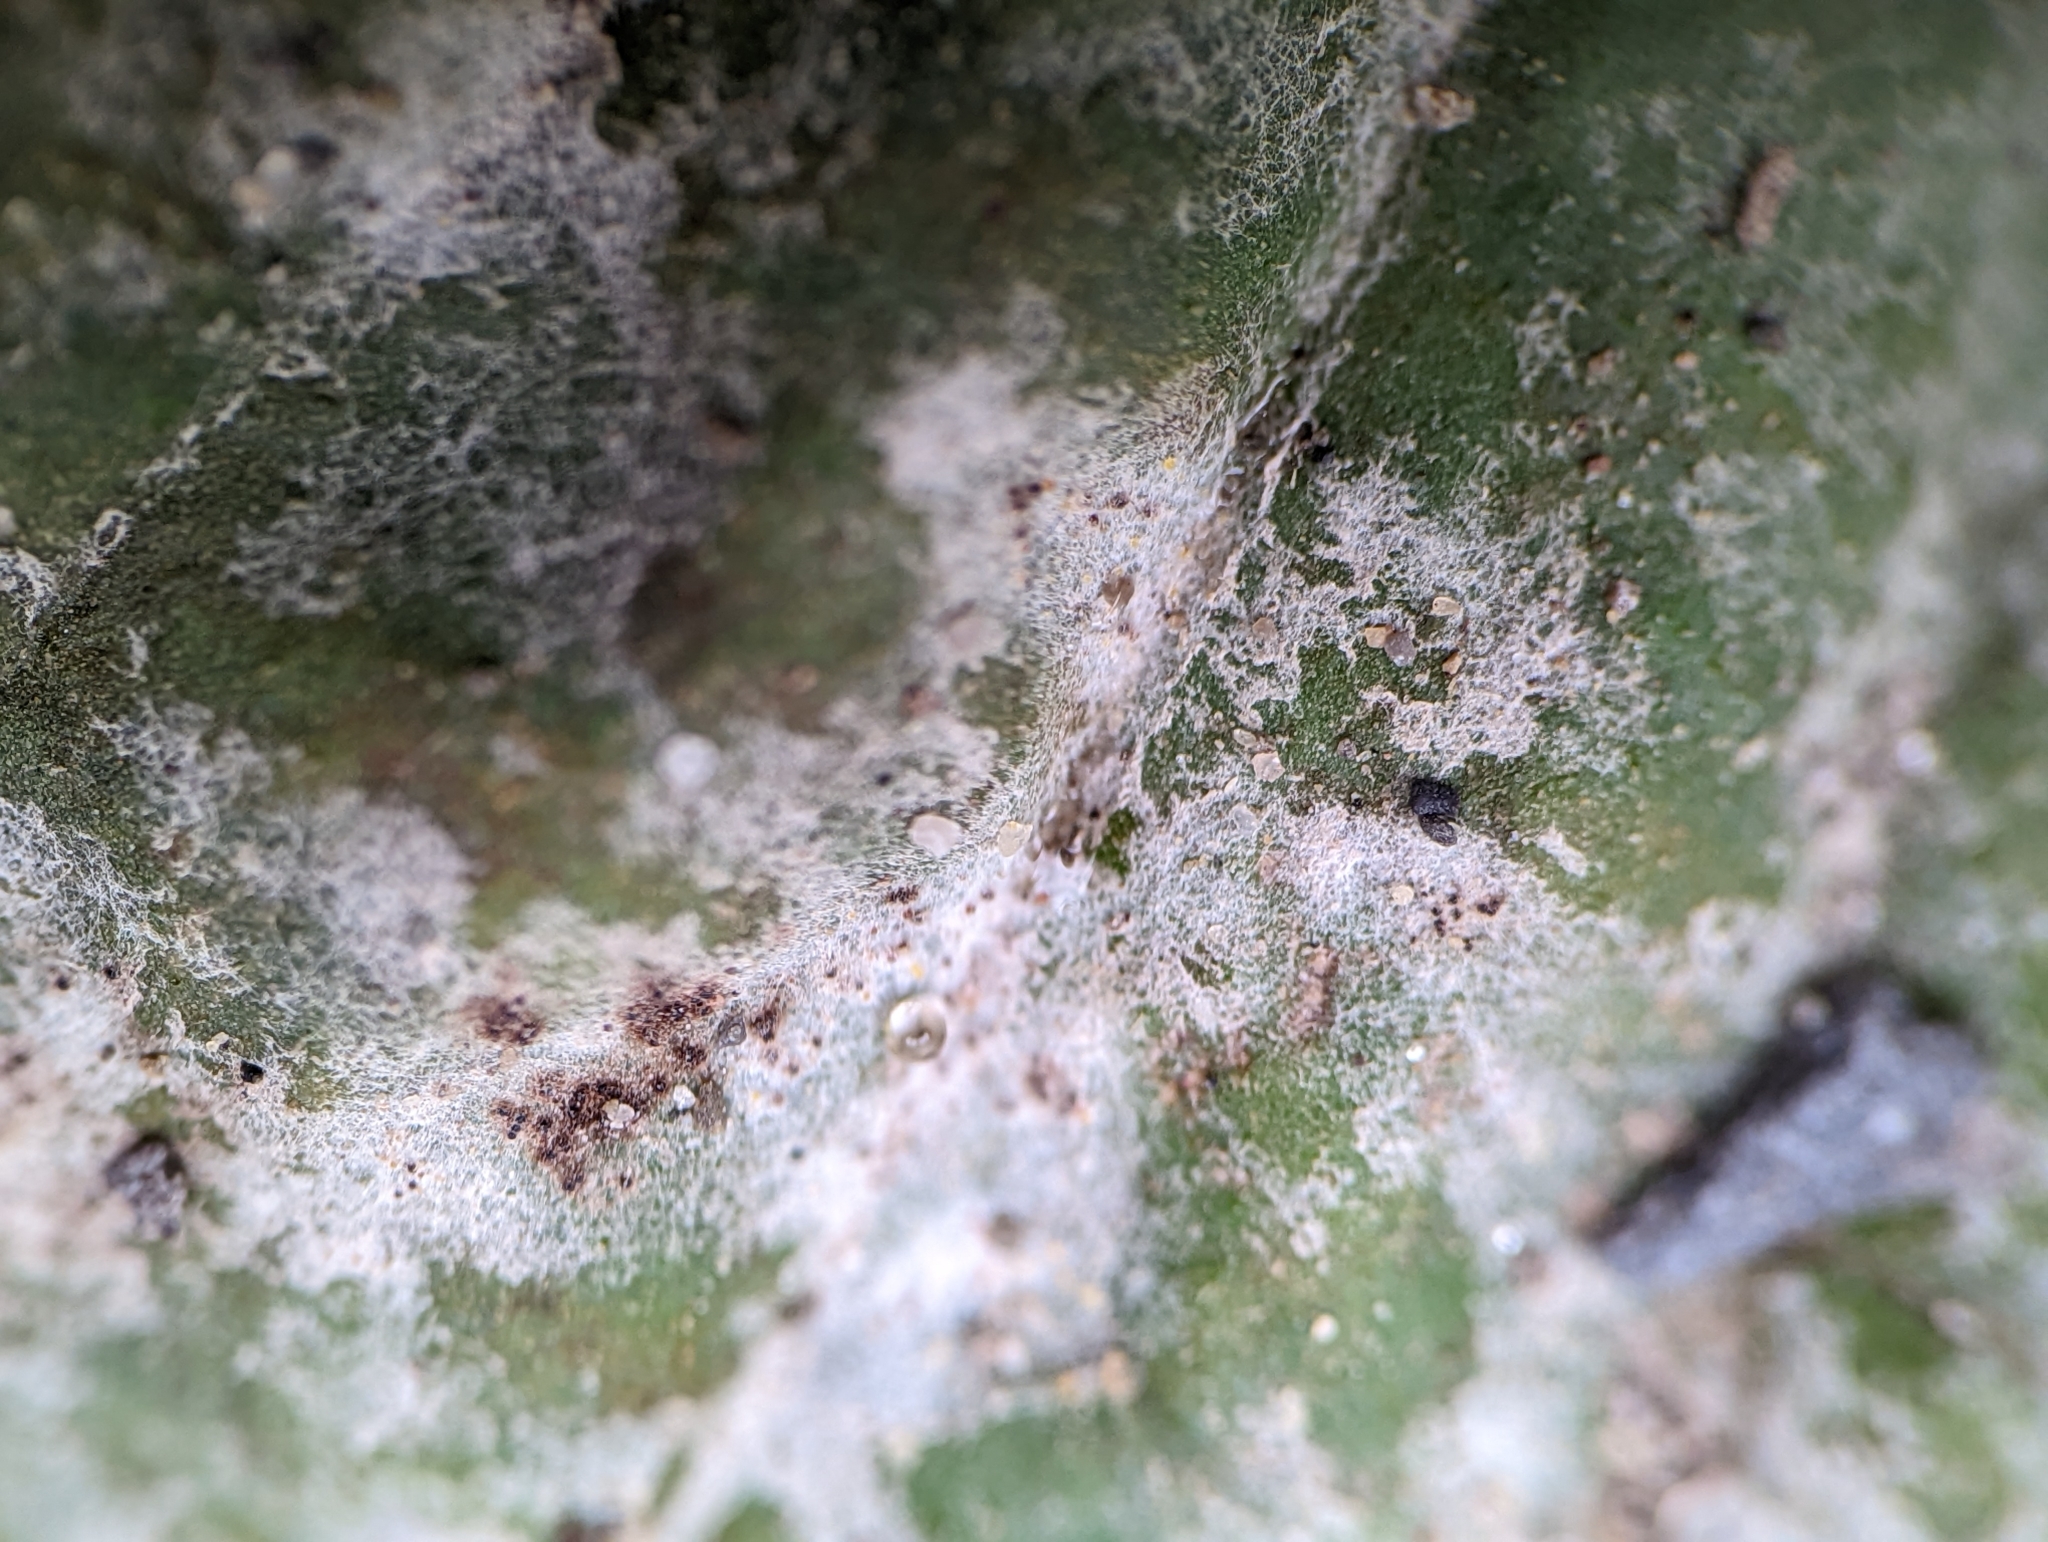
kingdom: Fungi
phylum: Ascomycota
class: Leotiomycetes
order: Helotiales
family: Erysiphaceae
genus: Golovinomyces
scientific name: Golovinomyces sordidus
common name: Plantain mildew
